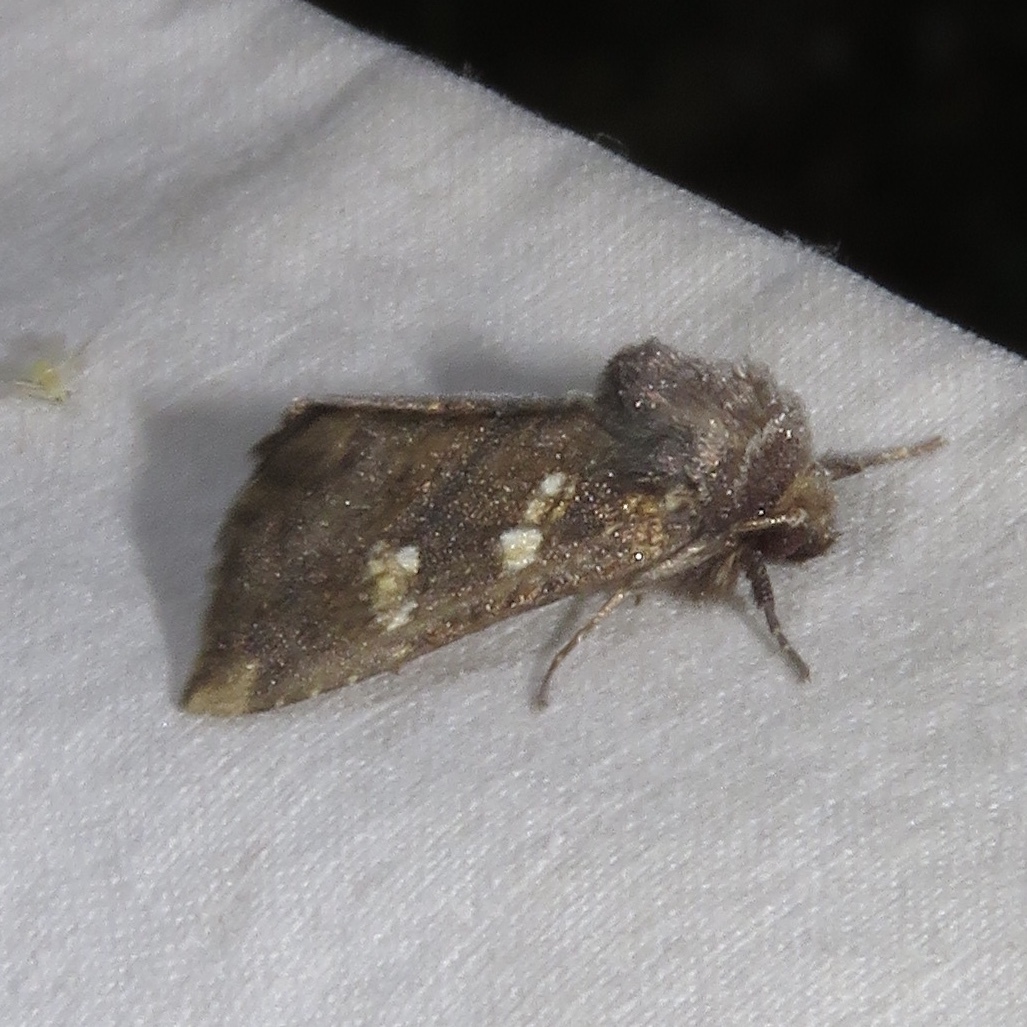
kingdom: Animalia
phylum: Arthropoda
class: Insecta
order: Lepidoptera
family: Noctuidae
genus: Papaipema
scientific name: Papaipema unimoda
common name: Meadow rue borer moth
